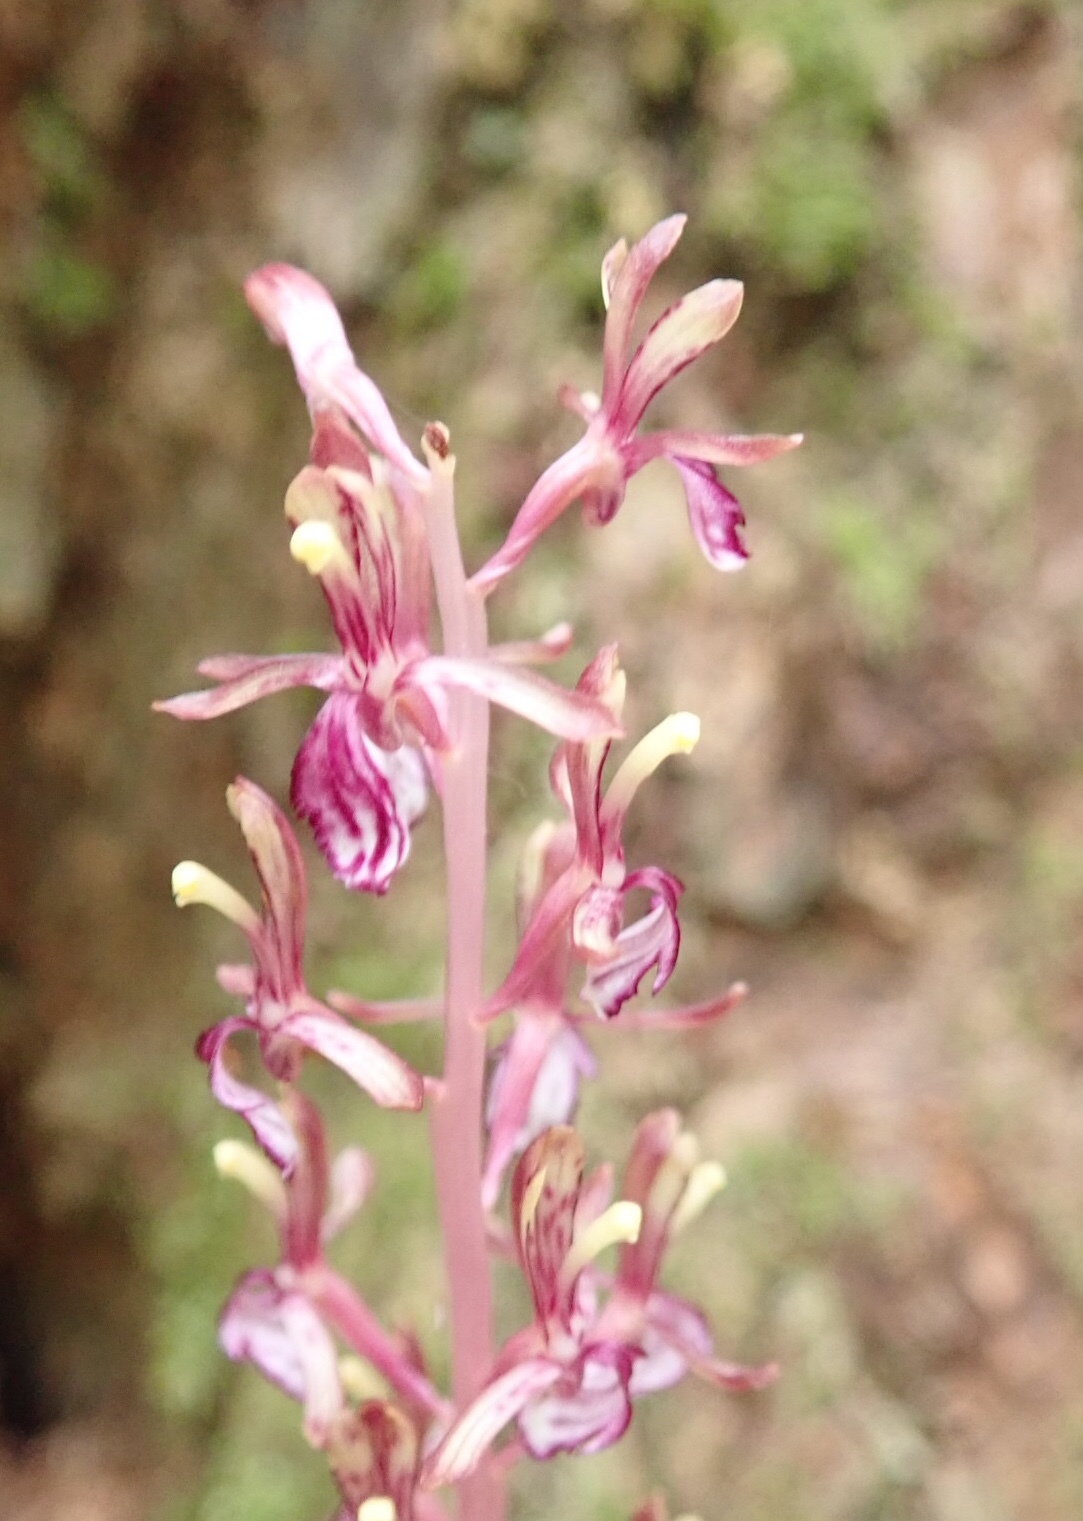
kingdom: Plantae
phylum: Tracheophyta
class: Liliopsida
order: Asparagales
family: Orchidaceae
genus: Corallorhiza
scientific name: Corallorhiza mertensiana
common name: Pacific coralroot
